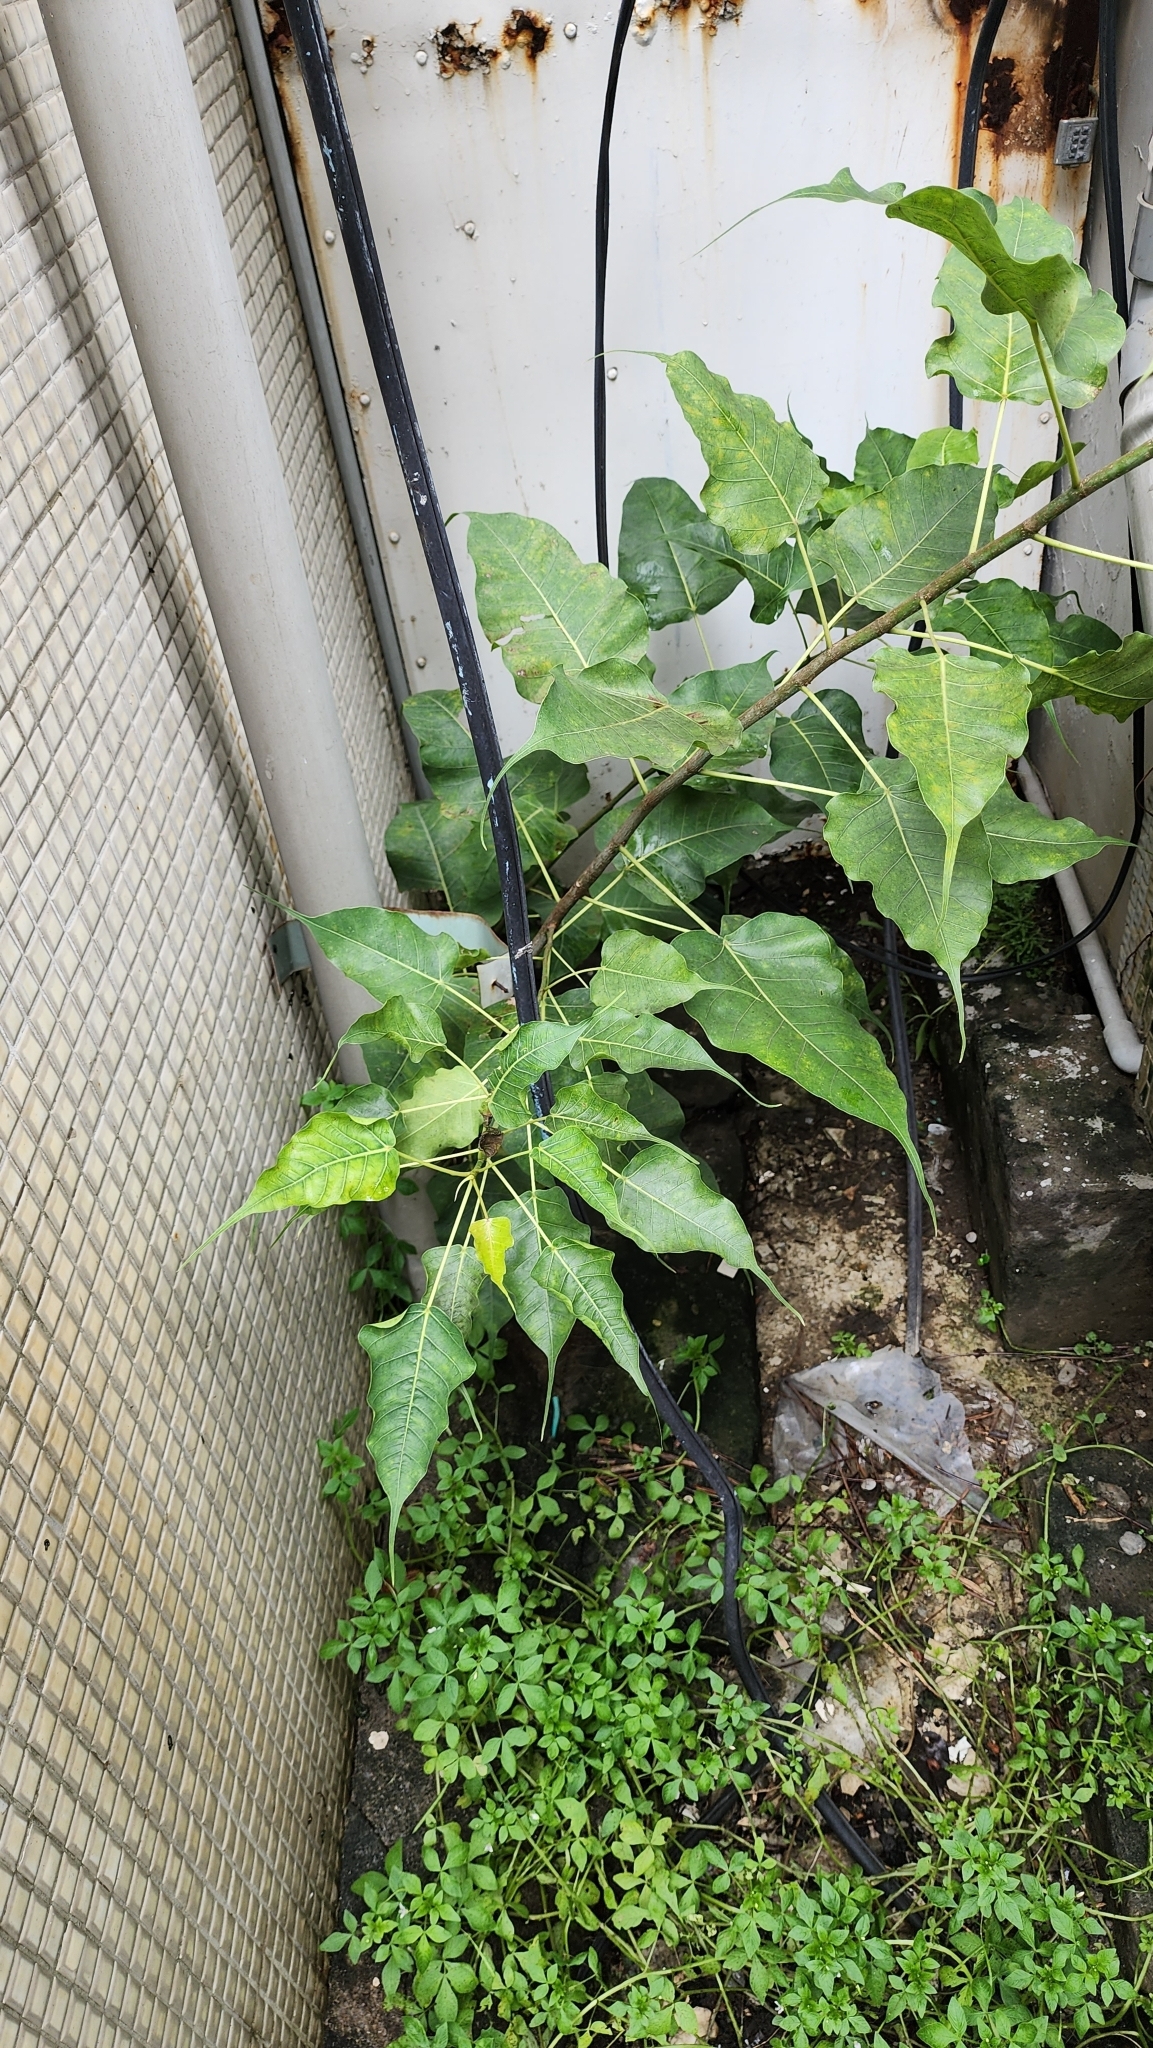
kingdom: Plantae
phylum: Tracheophyta
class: Magnoliopsida
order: Rosales
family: Moraceae
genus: Ficus
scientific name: Ficus religiosa
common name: Bodhi tree
